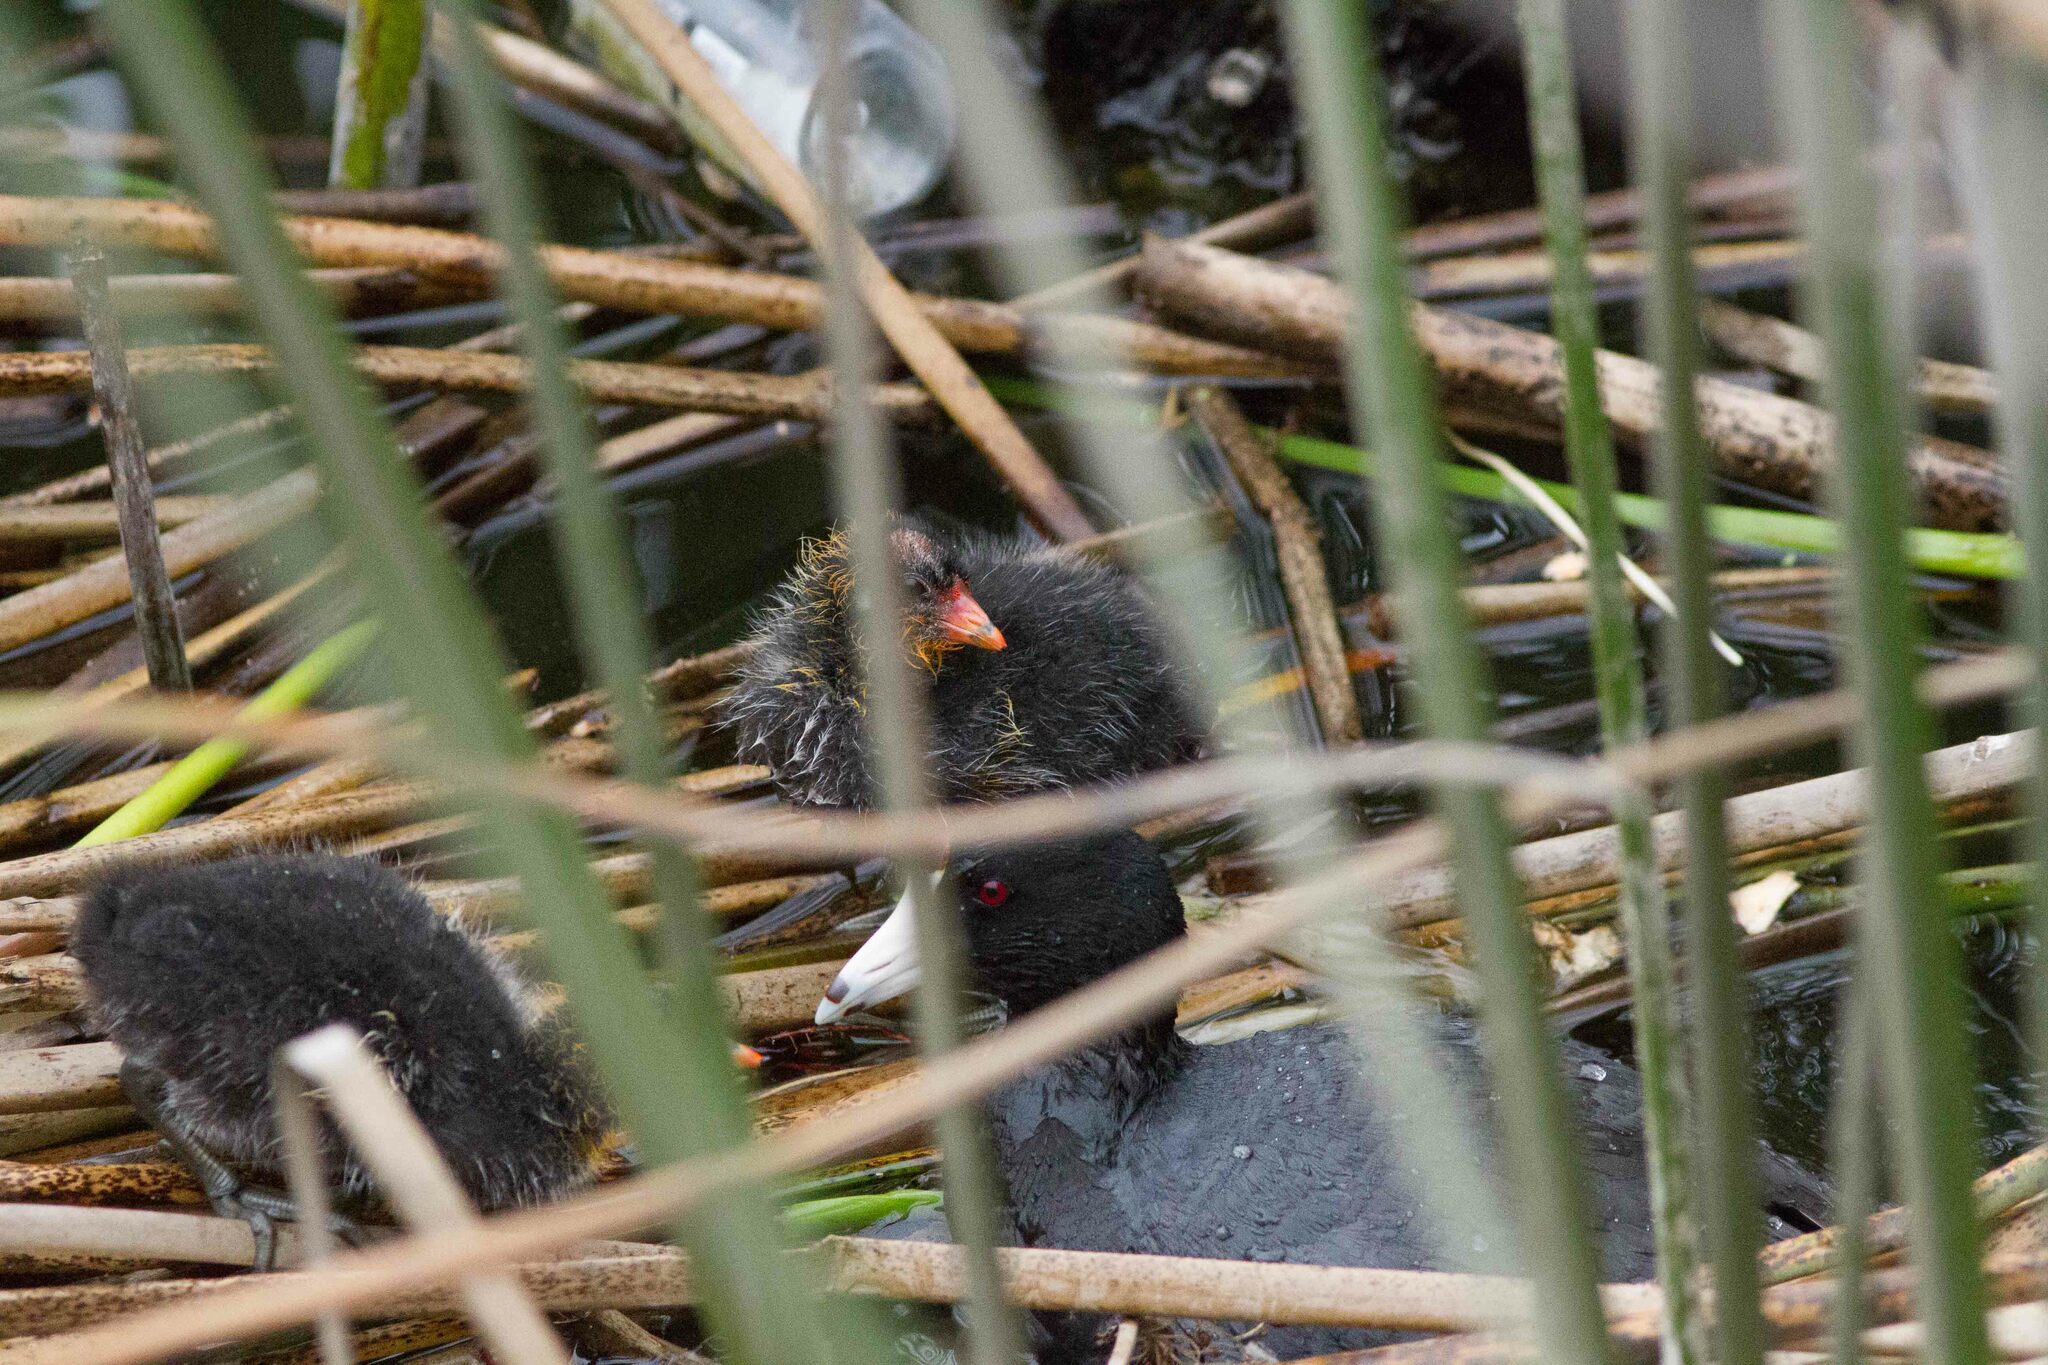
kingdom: Animalia
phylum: Chordata
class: Aves
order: Gruiformes
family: Rallidae
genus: Fulica
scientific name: Fulica americana
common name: American coot
